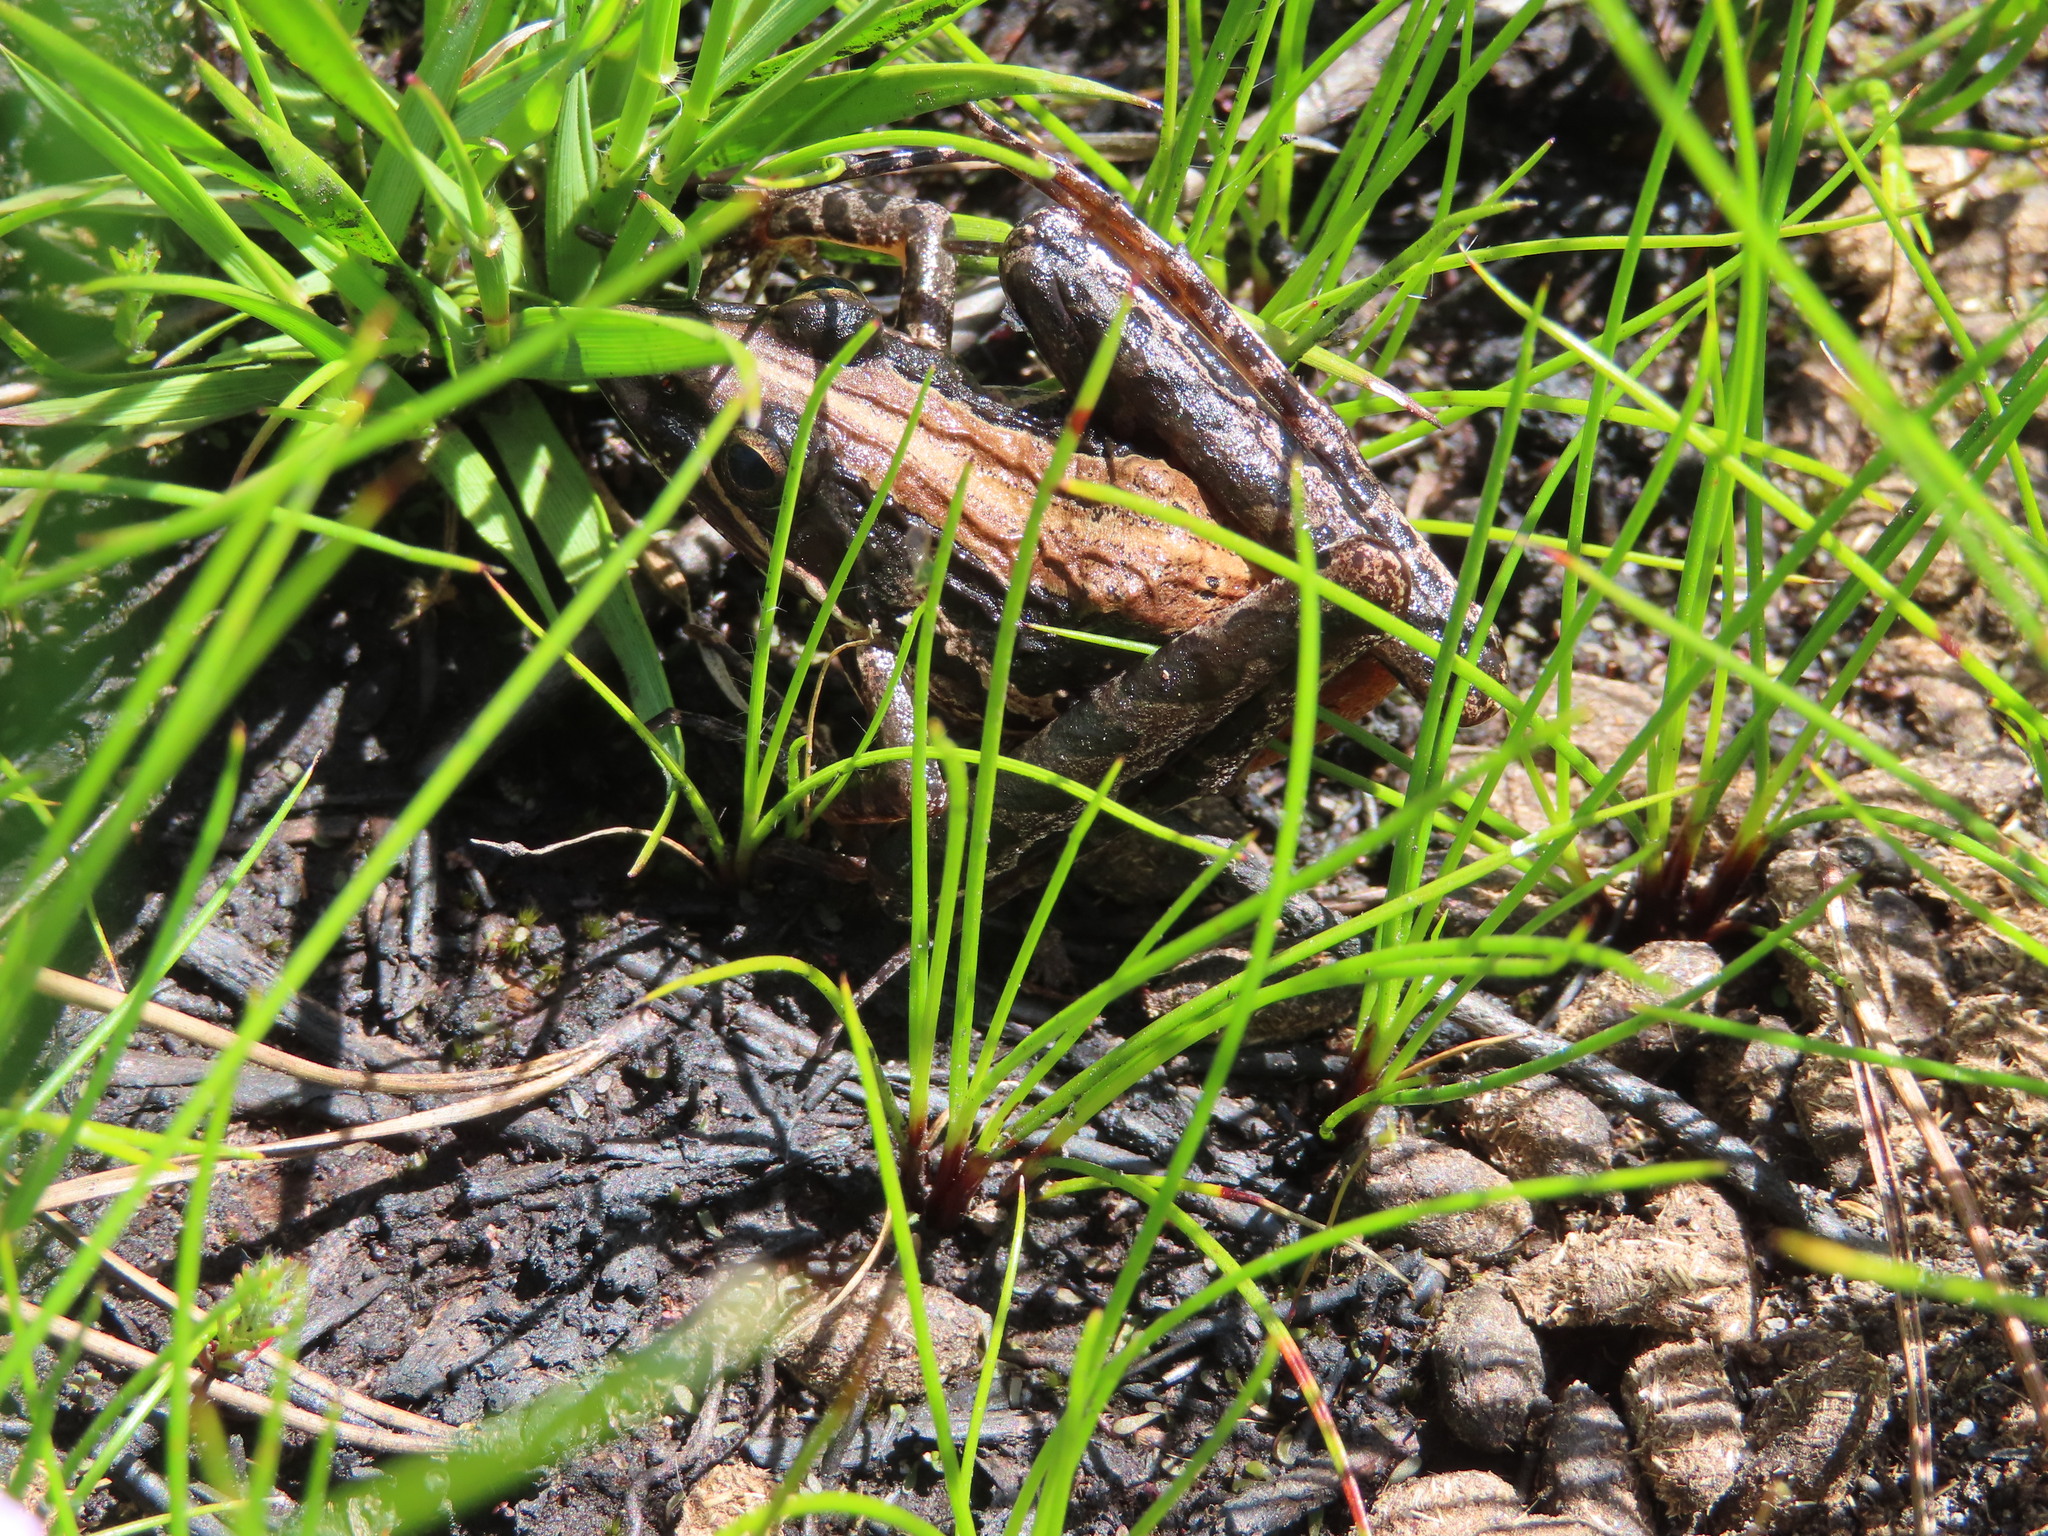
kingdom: Animalia
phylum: Chordata
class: Amphibia
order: Anura
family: Pyxicephalidae
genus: Strongylopus
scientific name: Strongylopus bonaespei
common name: Banded stream frog
